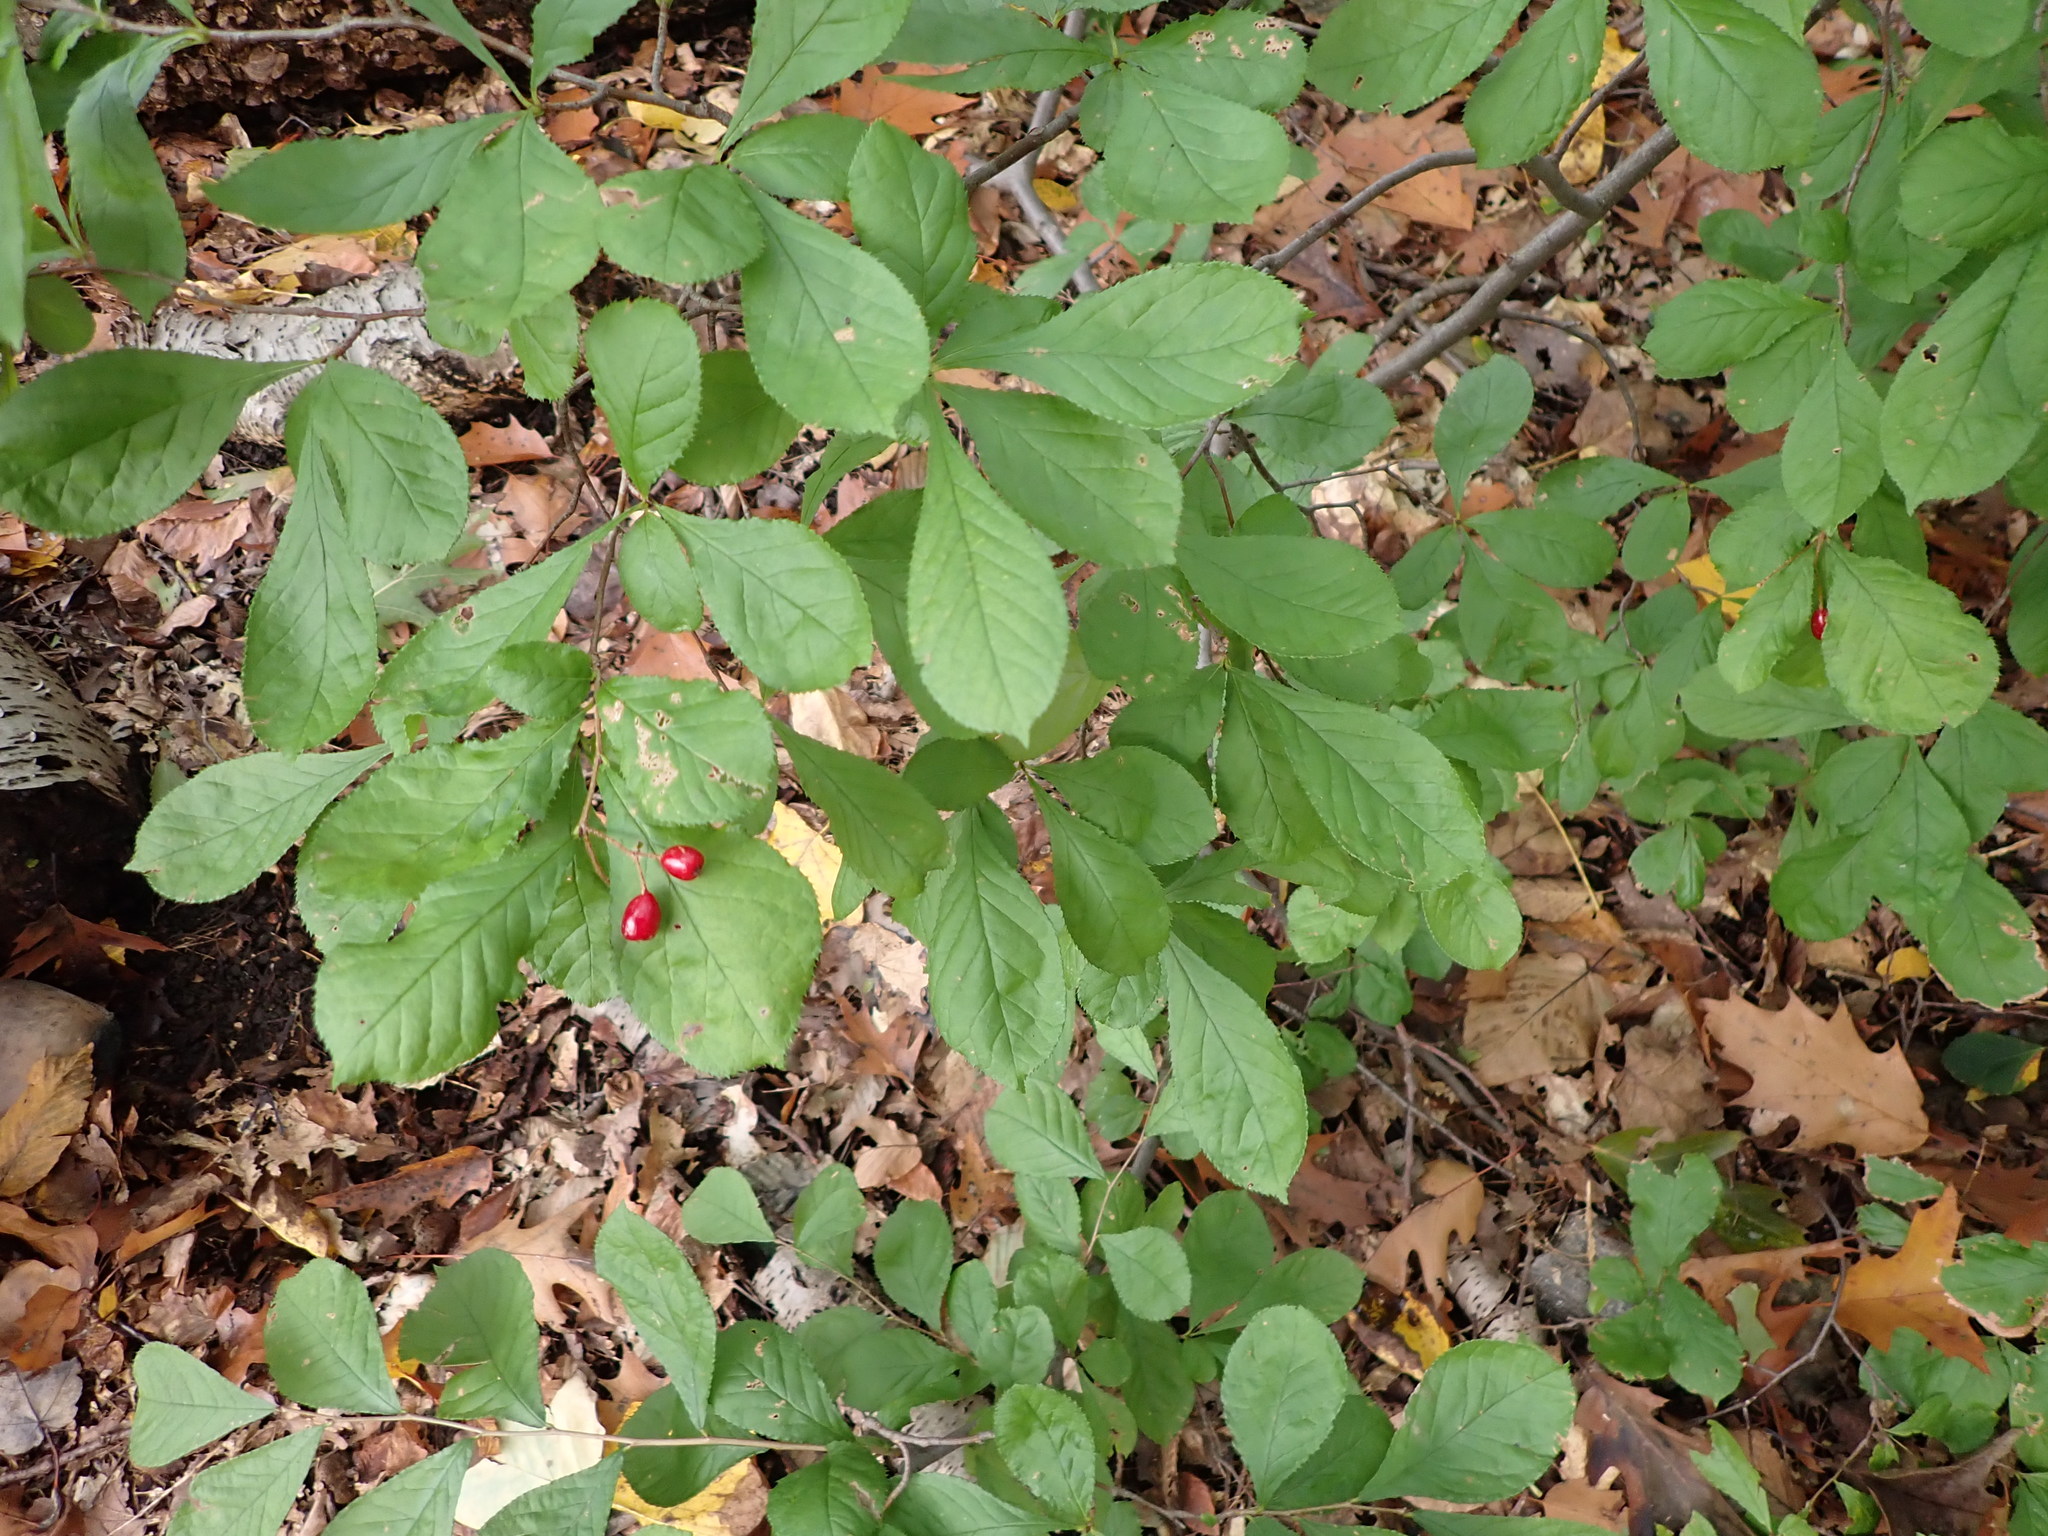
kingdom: Plantae
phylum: Tracheophyta
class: Magnoliopsida
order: Rosales
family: Rosaceae
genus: Pourthiaea
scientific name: Pourthiaea villosa
